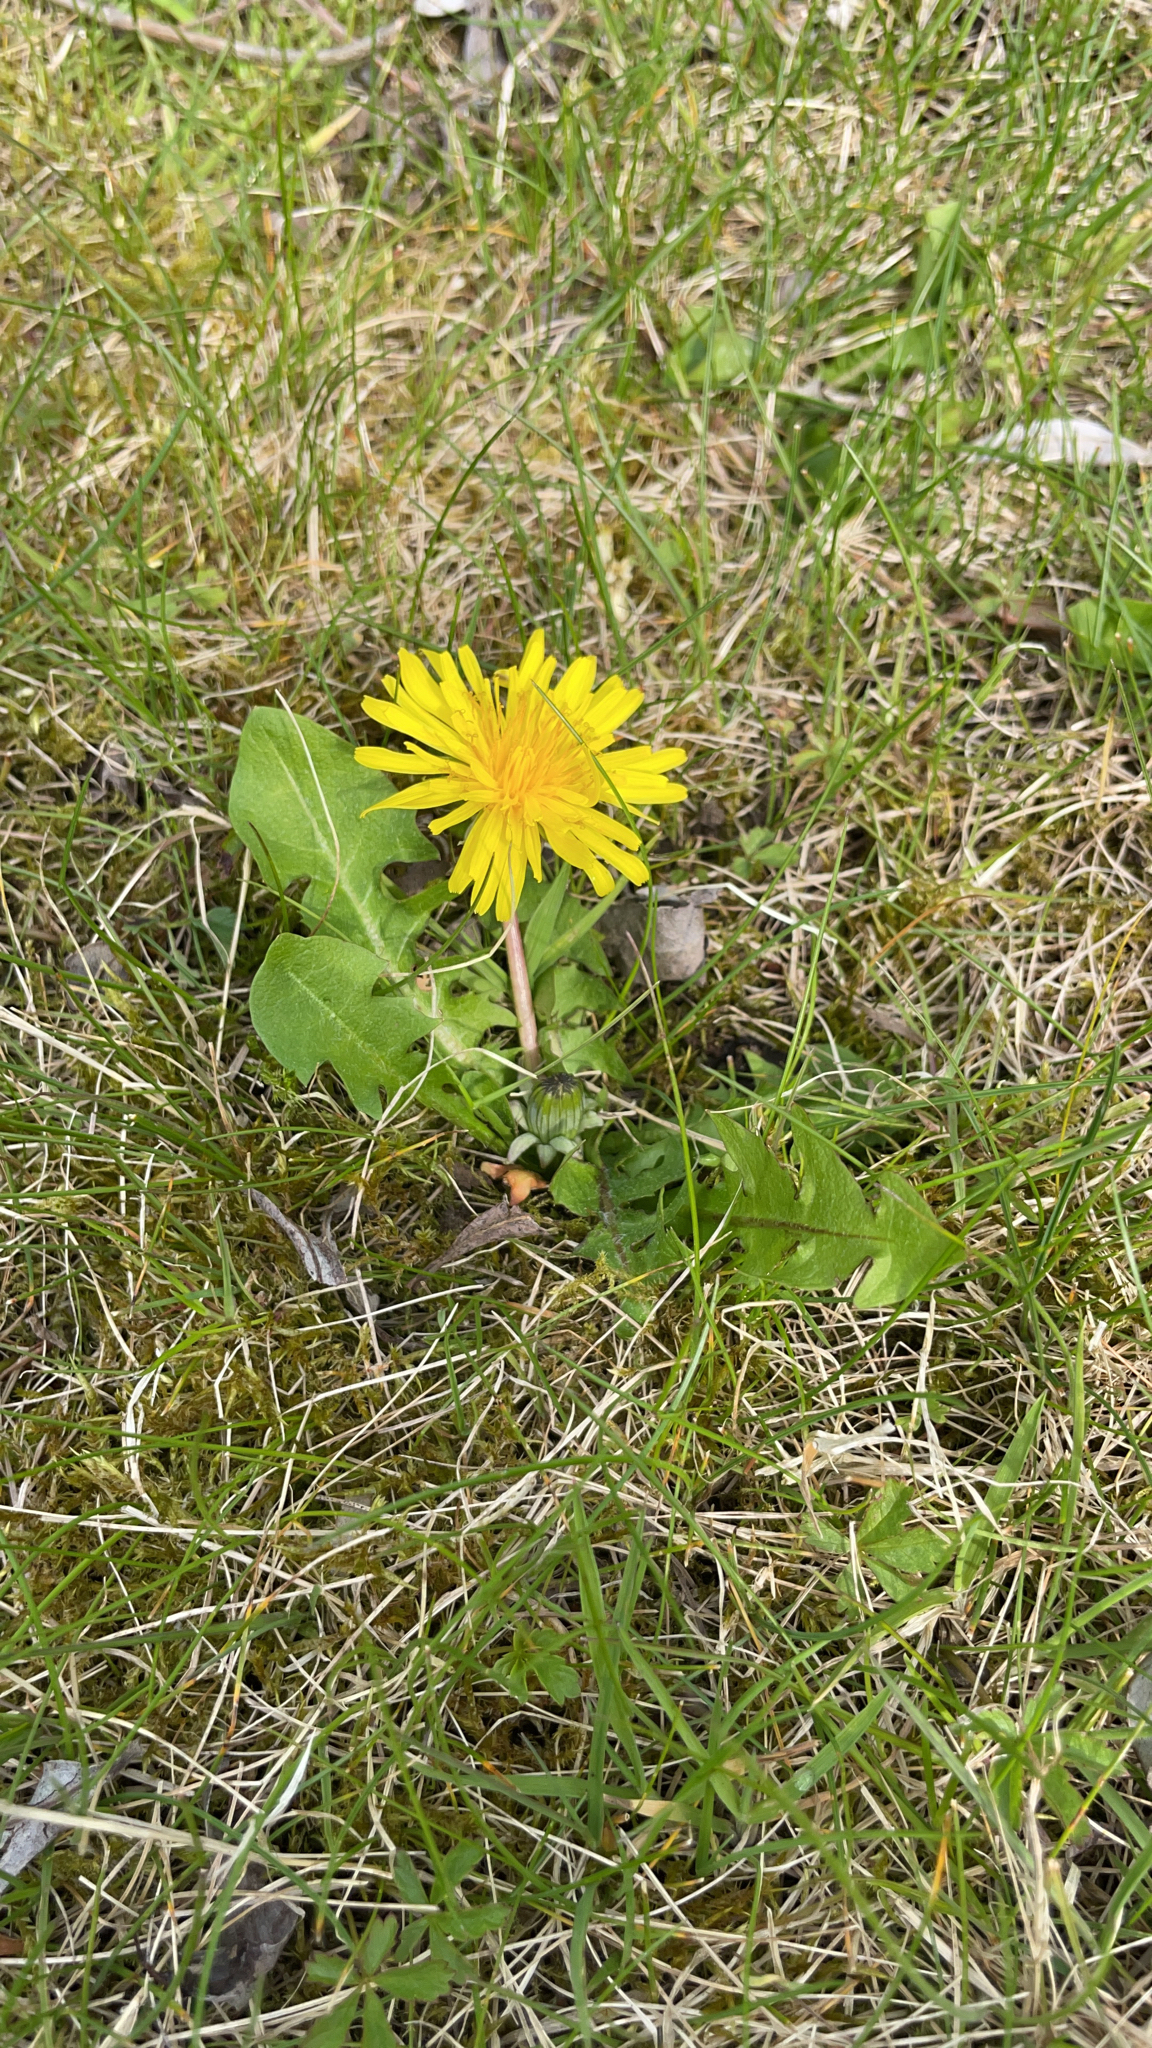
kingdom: Plantae
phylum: Tracheophyta
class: Magnoliopsida
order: Asterales
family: Asteraceae
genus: Taraxacum
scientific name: Taraxacum officinale
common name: Common dandelion
